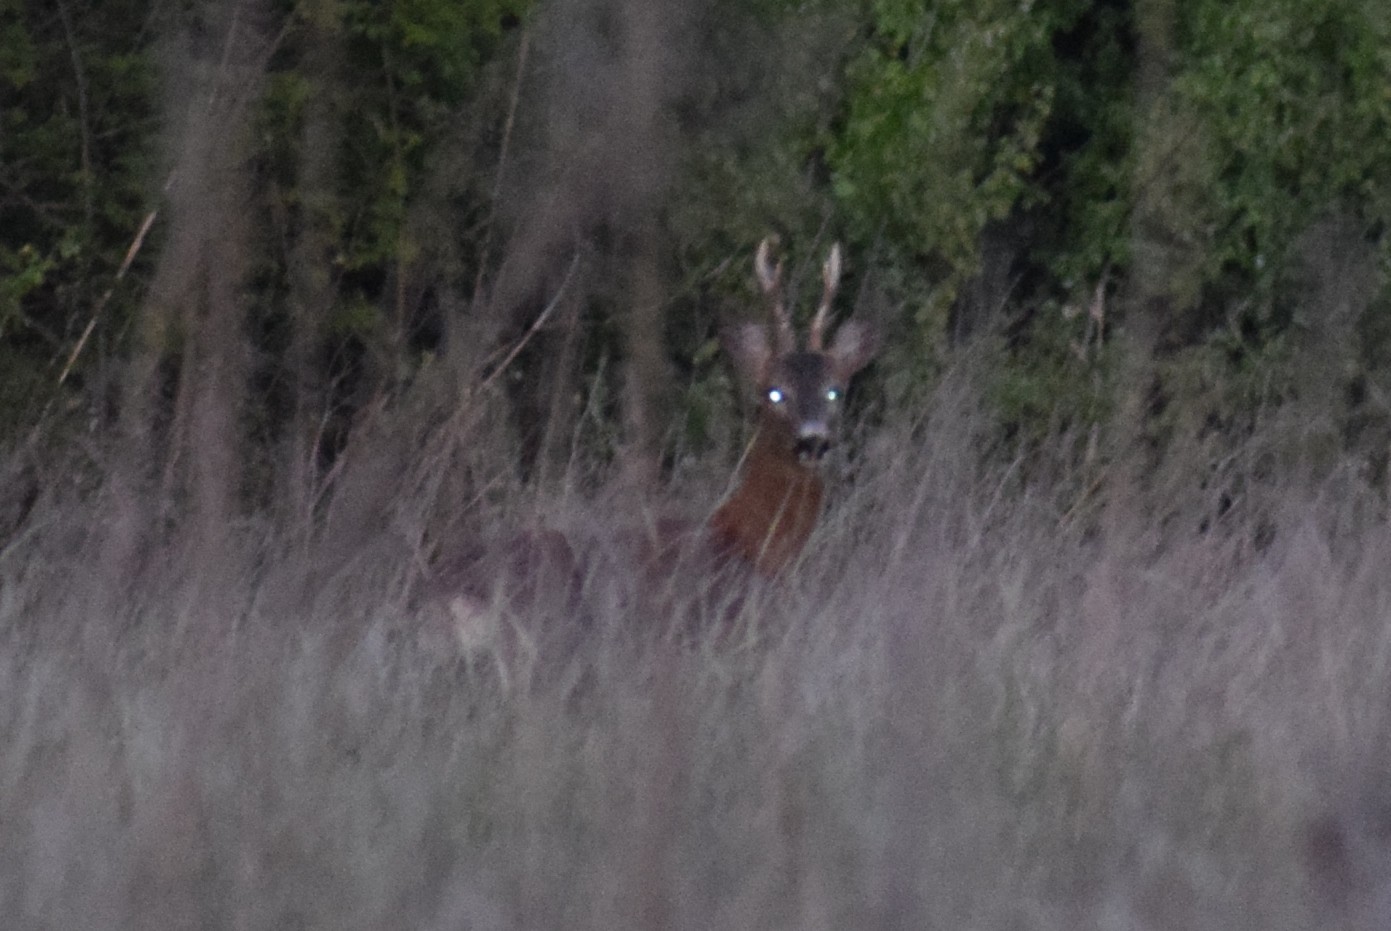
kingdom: Animalia
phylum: Chordata
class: Mammalia
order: Artiodactyla
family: Cervidae
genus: Capreolus
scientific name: Capreolus capreolus
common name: Western roe deer
